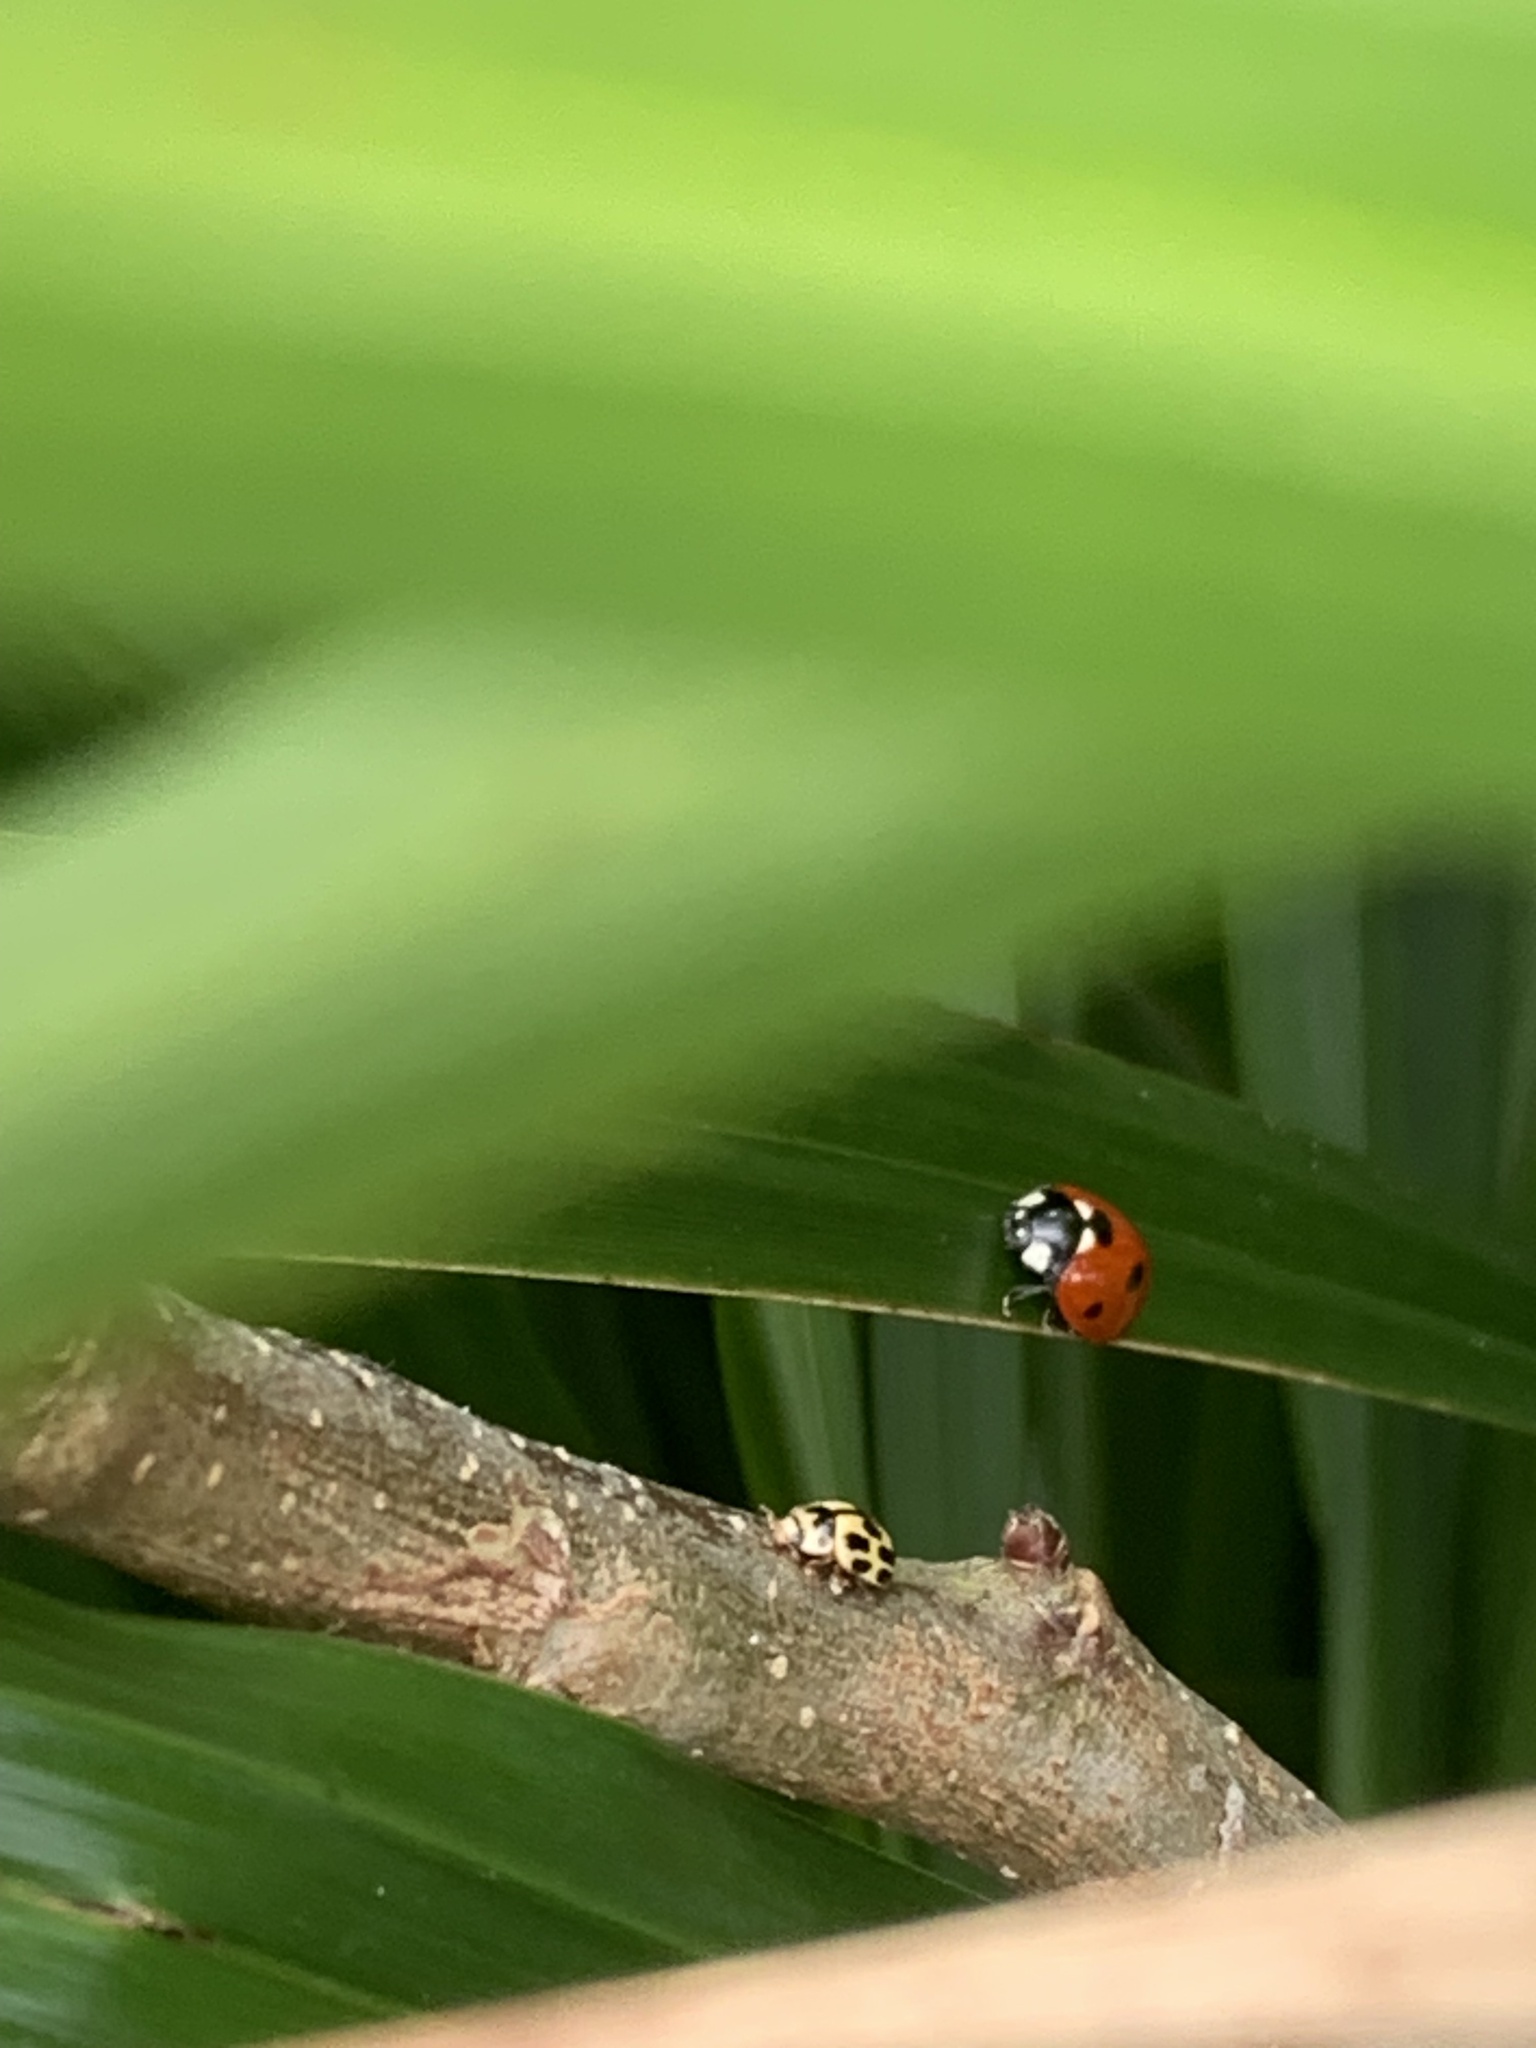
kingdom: Animalia
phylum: Arthropoda
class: Insecta
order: Coleoptera
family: Coccinellidae
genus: Coccinella
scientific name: Coccinella septempunctata
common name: Sevenspotted lady beetle
